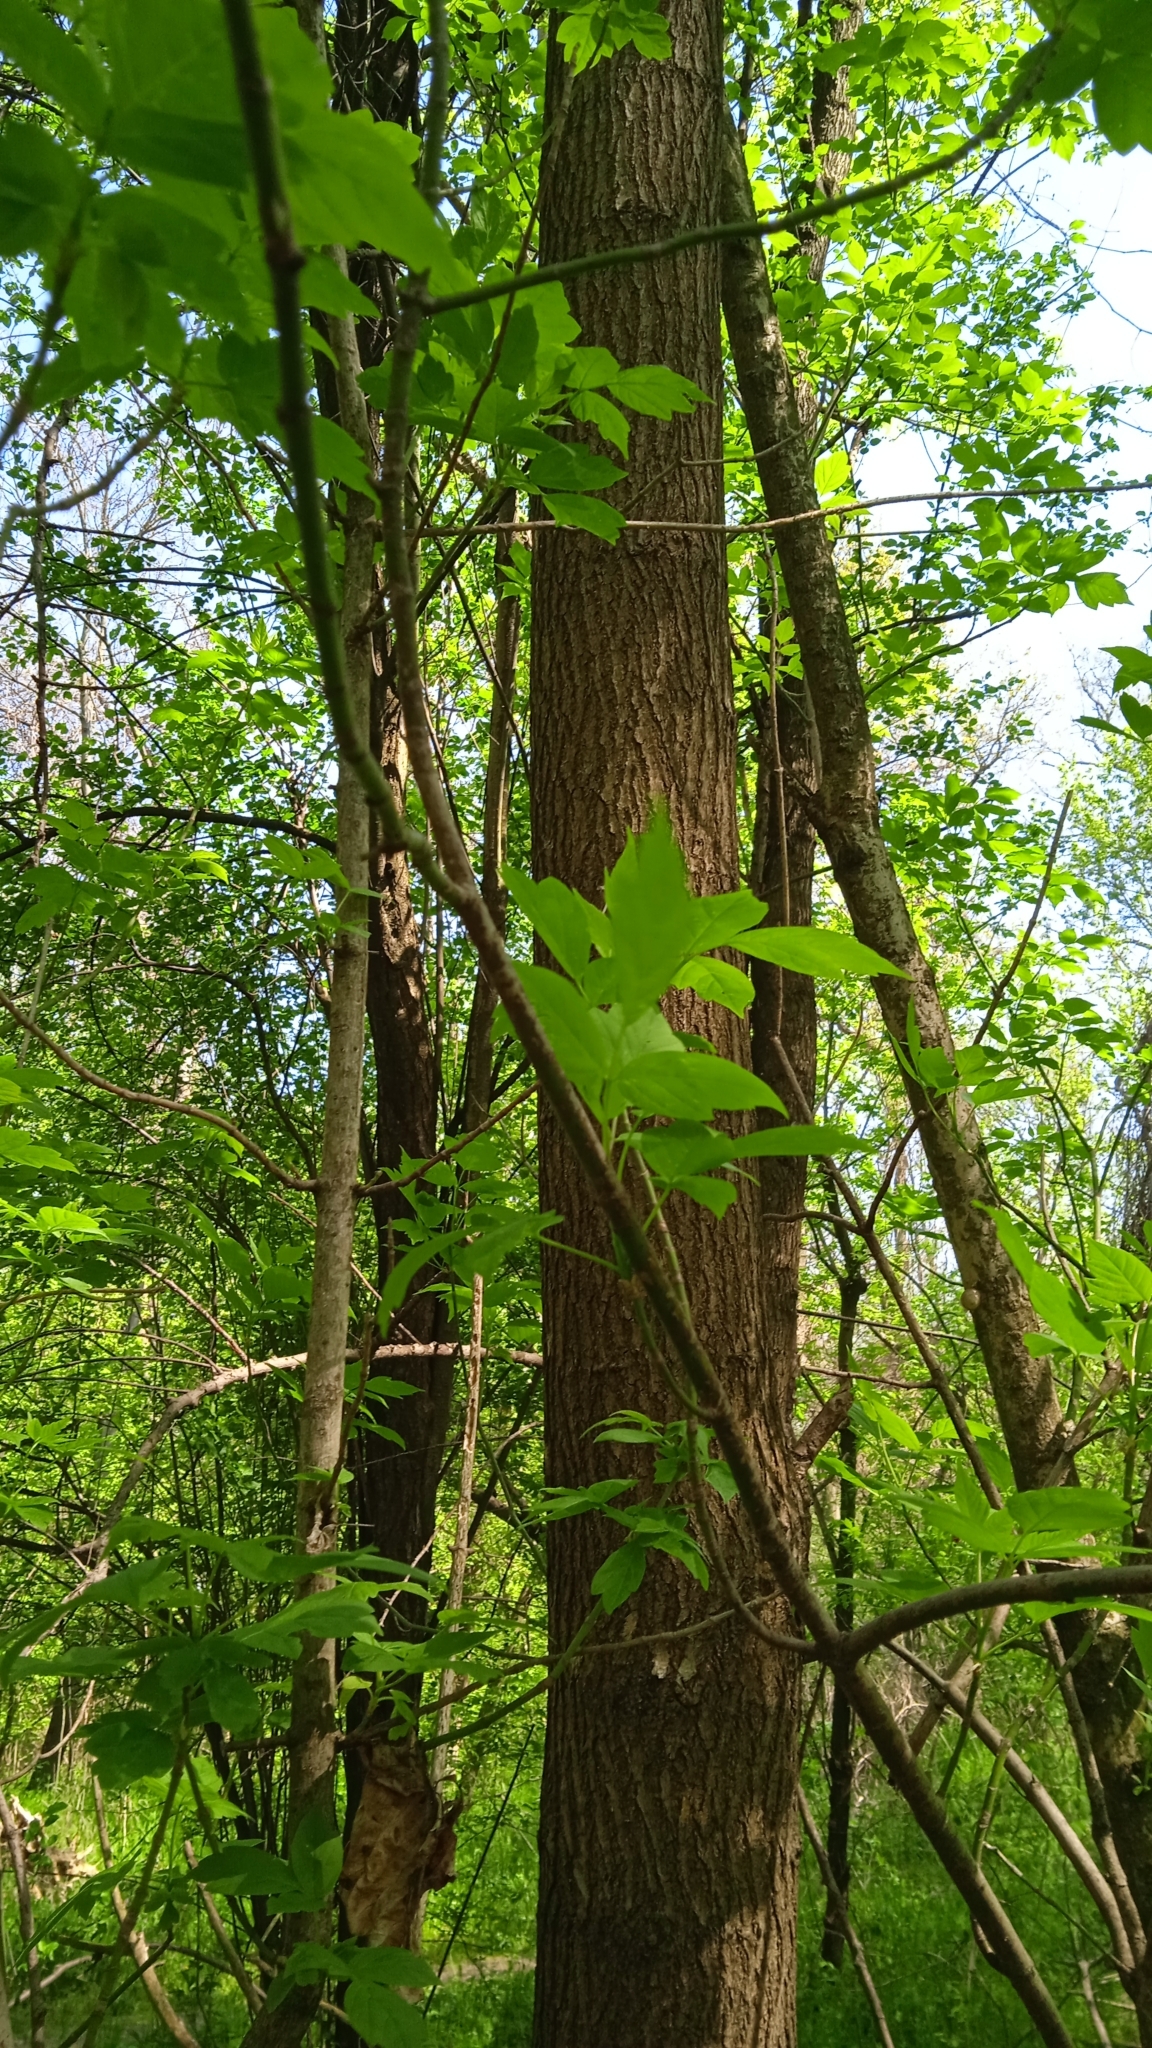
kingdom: Plantae
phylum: Tracheophyta
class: Magnoliopsida
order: Sapindales
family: Sapindaceae
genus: Acer
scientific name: Acer negundo
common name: Ashleaf maple
